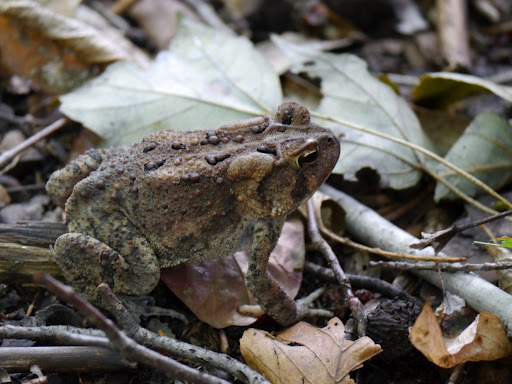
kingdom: Animalia
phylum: Chordata
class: Amphibia
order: Anura
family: Bufonidae
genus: Anaxyrus
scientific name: Anaxyrus americanus
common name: American toad
